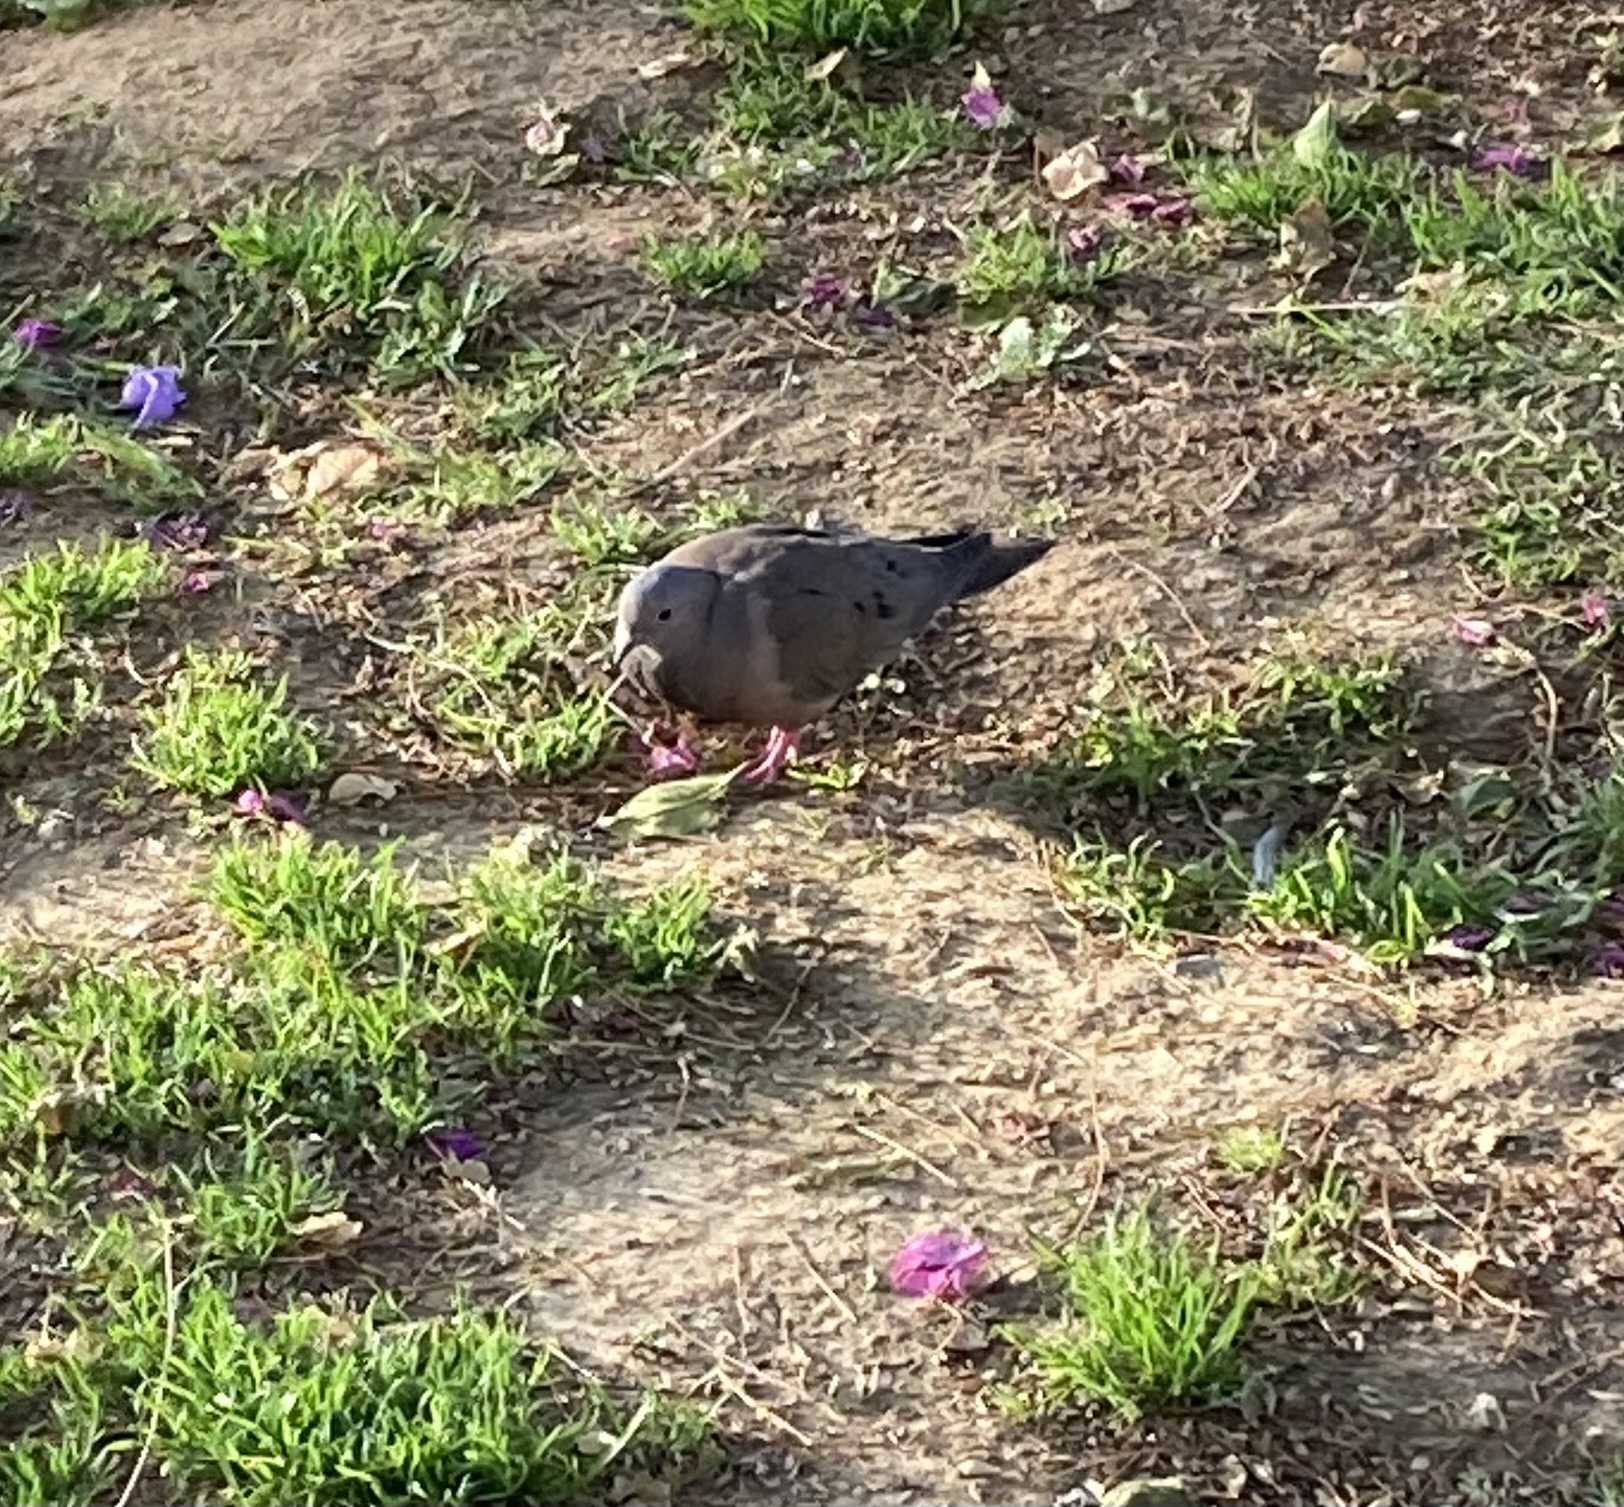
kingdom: Animalia
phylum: Chordata
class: Aves
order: Columbiformes
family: Columbidae
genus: Zenaida
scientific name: Zenaida auriculata
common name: Eared dove
